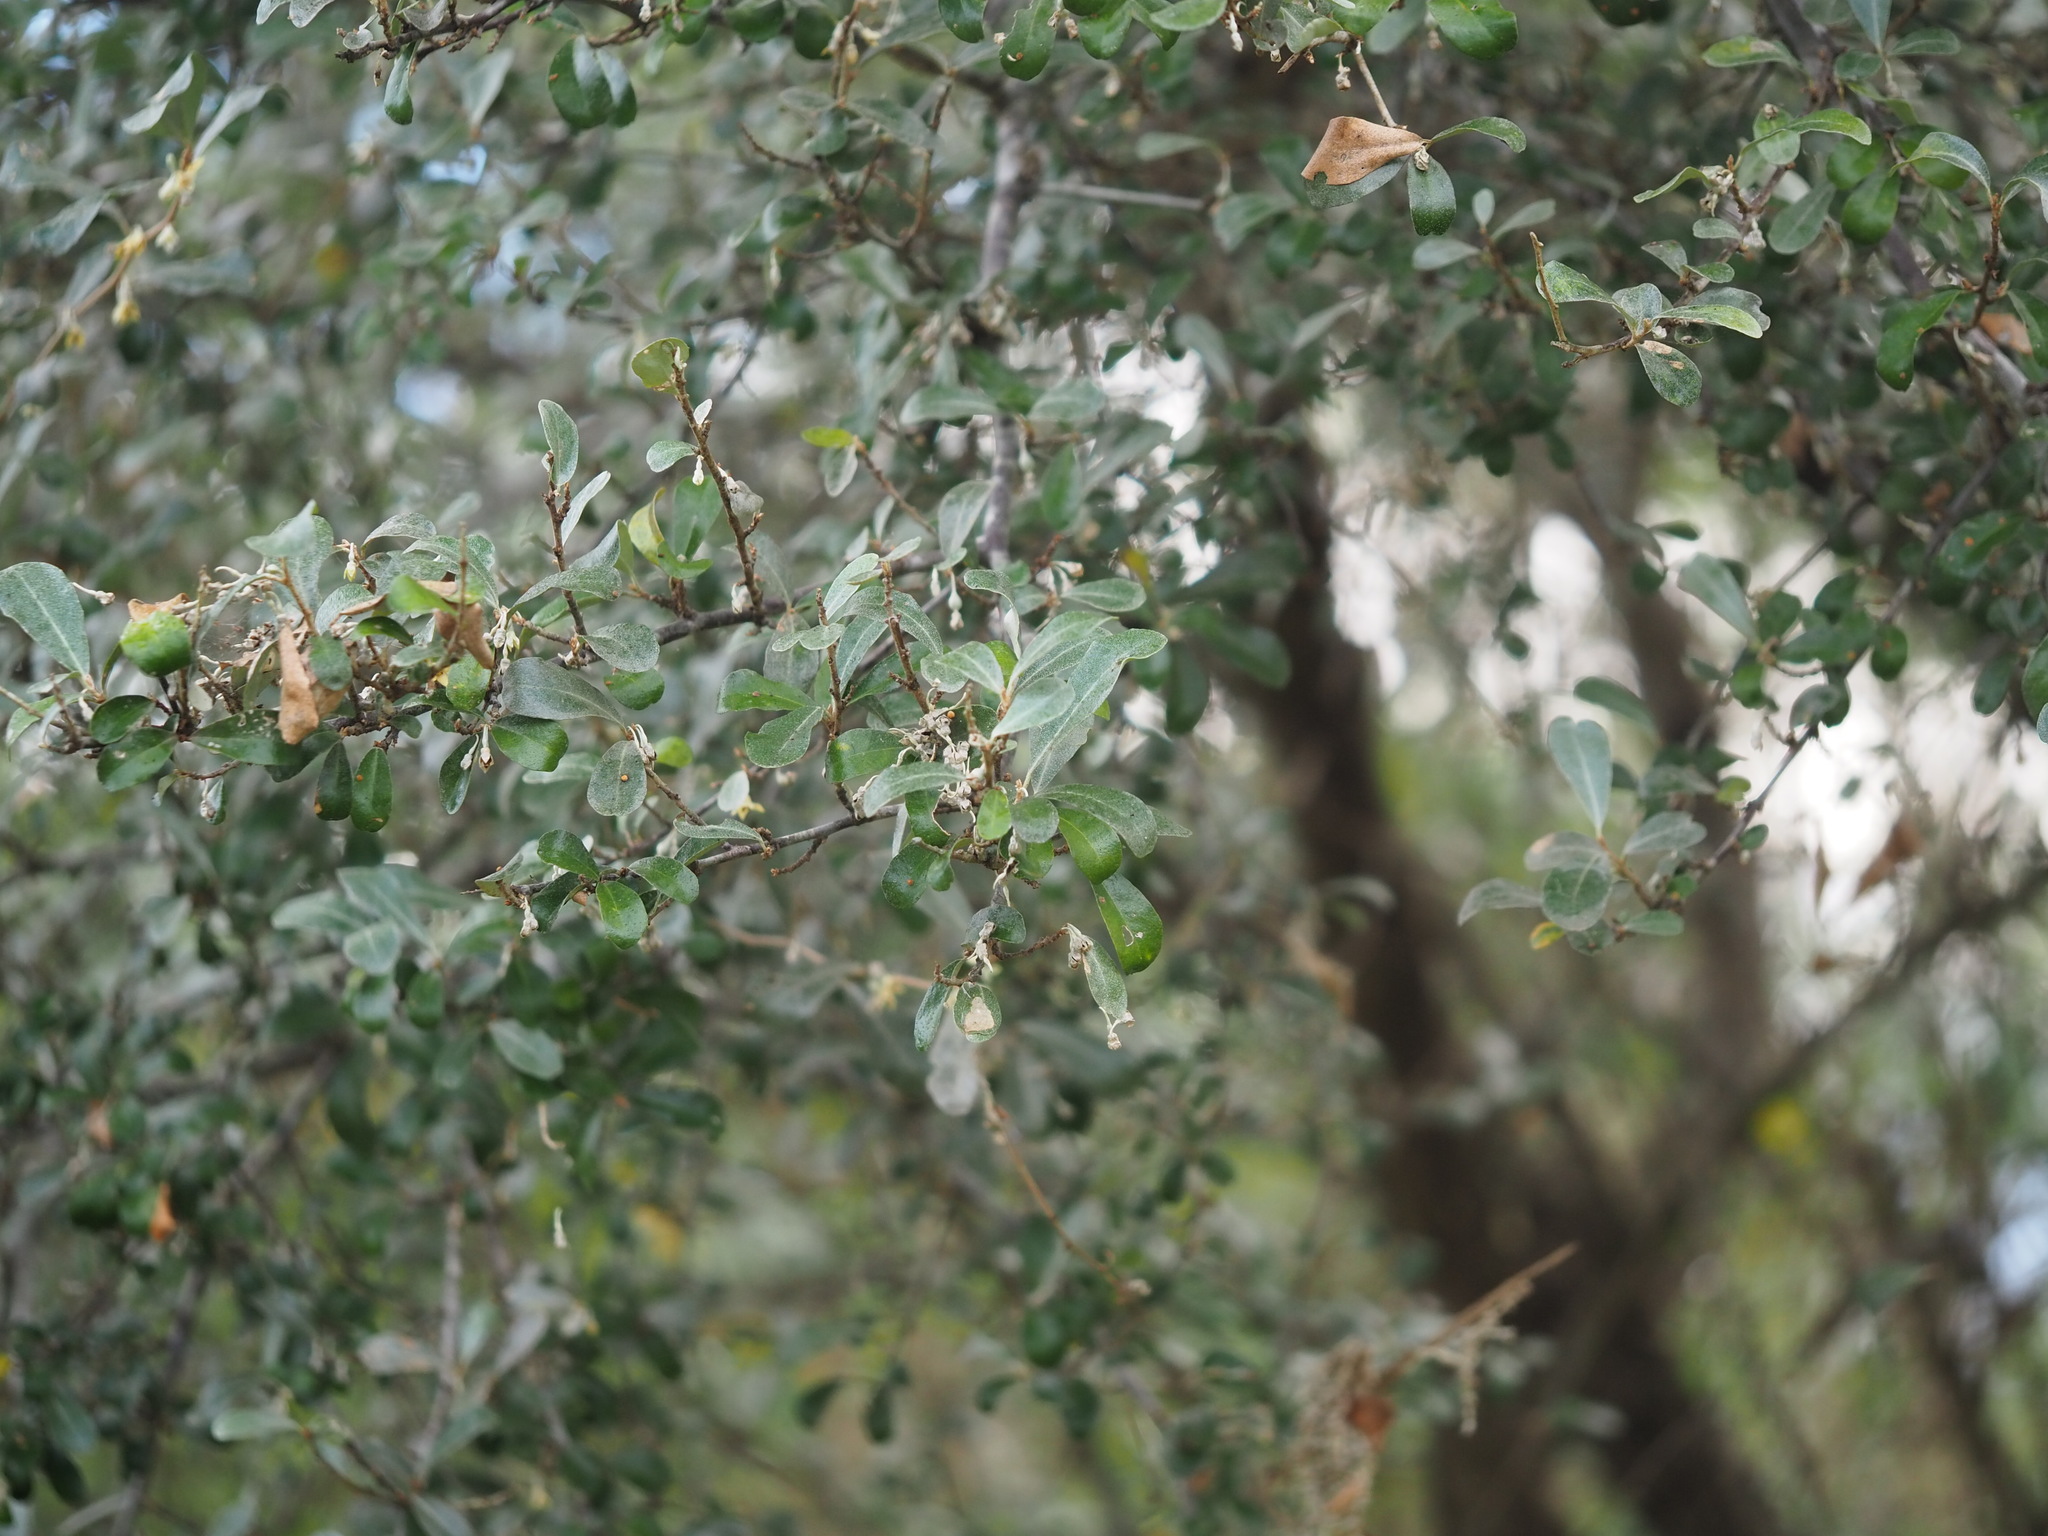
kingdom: Plantae
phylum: Tracheophyta
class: Magnoliopsida
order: Rosales
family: Elaeagnaceae
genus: Elaeagnus
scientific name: Elaeagnus oldhamii
